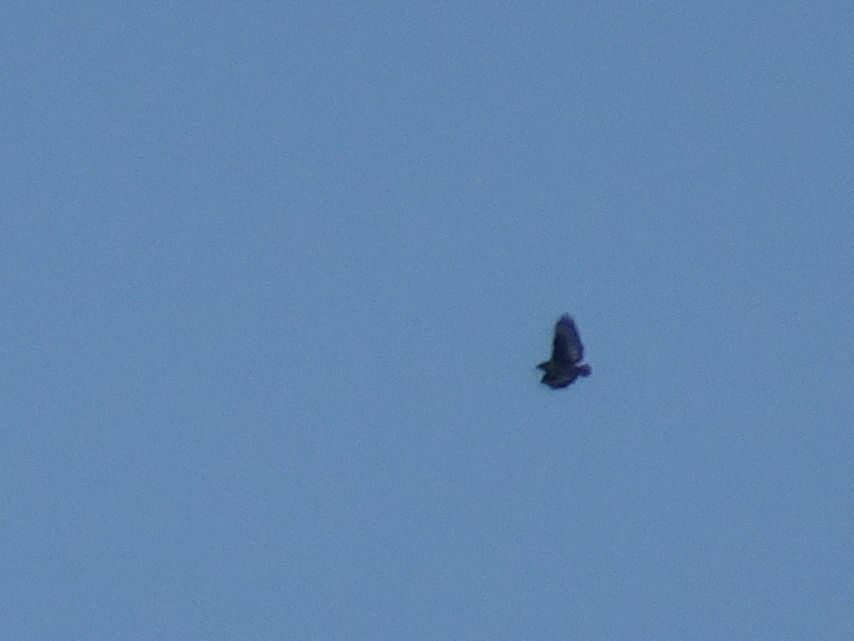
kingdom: Animalia
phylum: Chordata
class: Aves
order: Accipitriformes
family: Accipitridae
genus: Buteo
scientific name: Buteo rufofuscus
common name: Jackal buzzard
